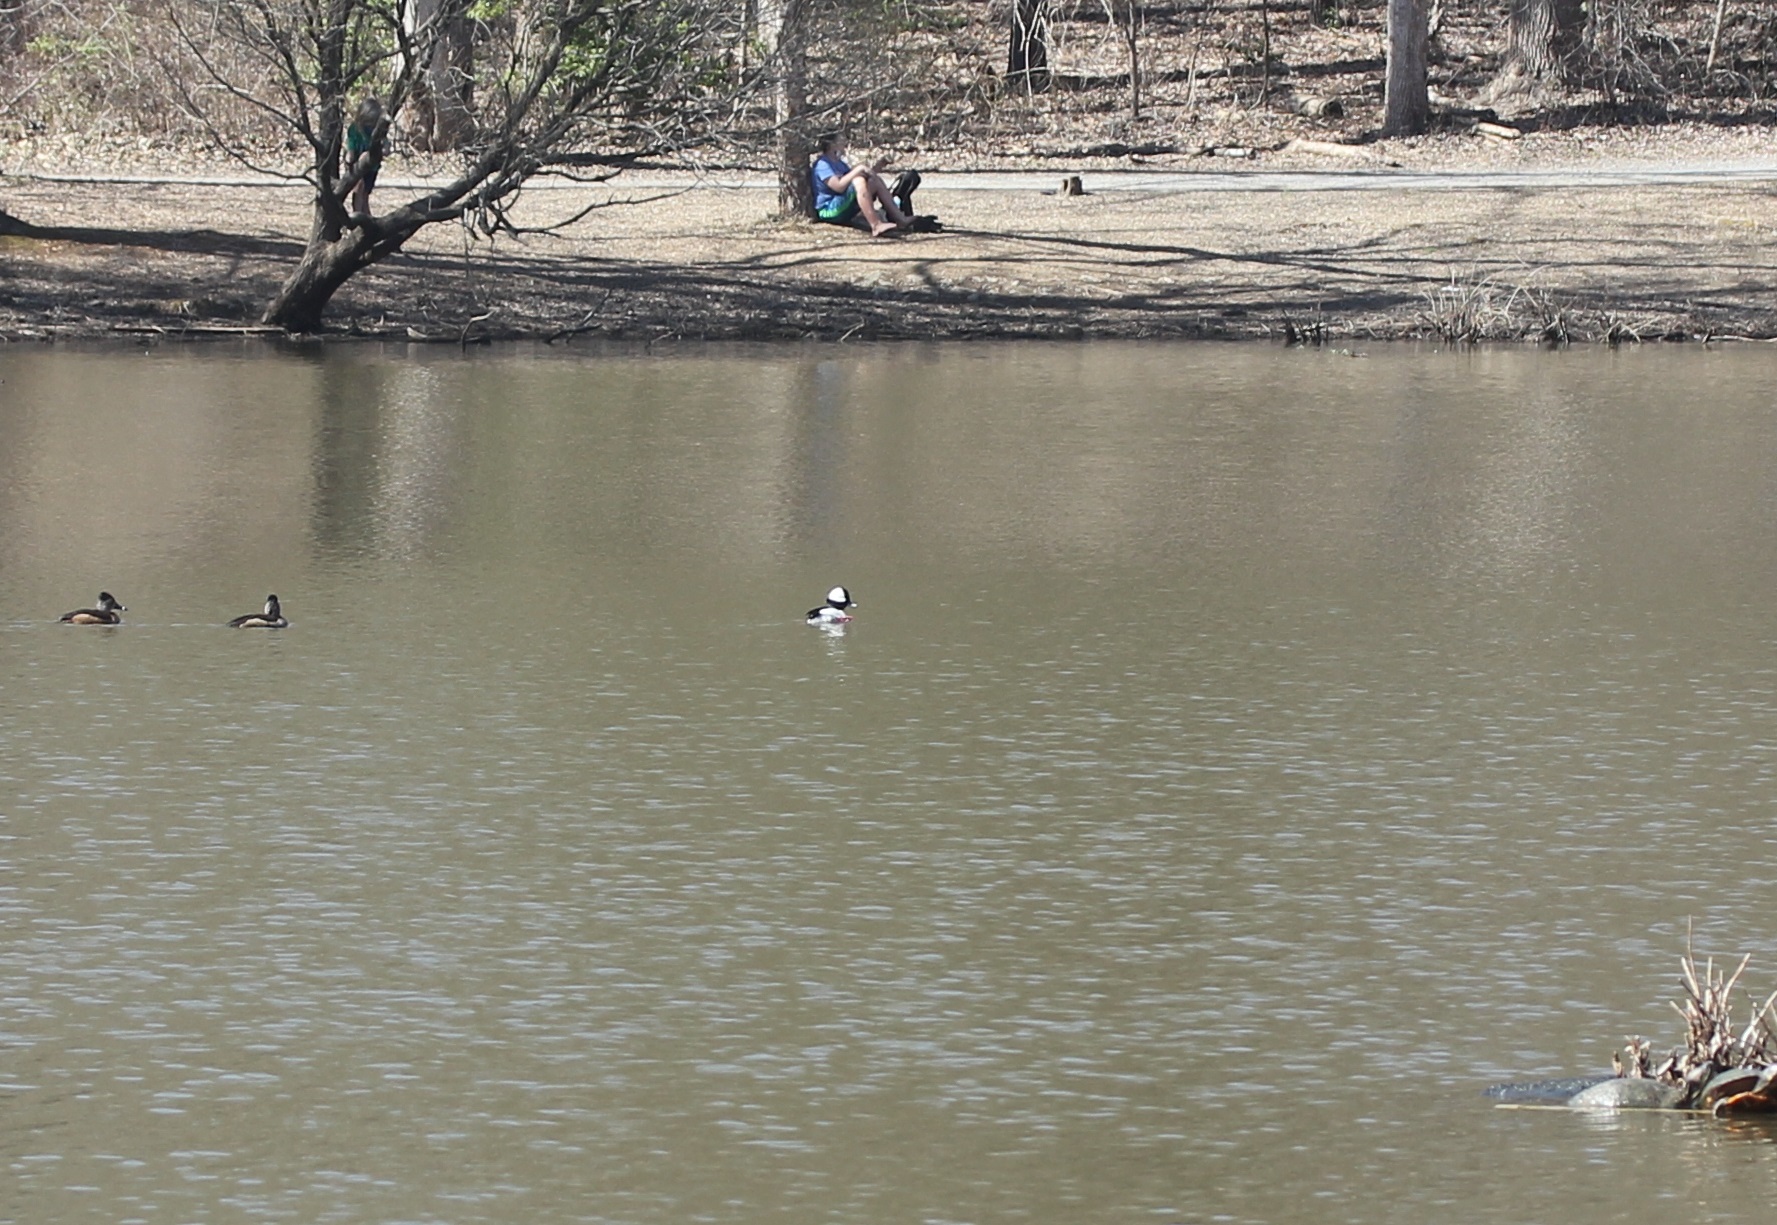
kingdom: Animalia
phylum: Chordata
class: Aves
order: Anseriformes
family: Anatidae
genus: Bucephala
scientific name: Bucephala albeola
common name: Bufflehead
